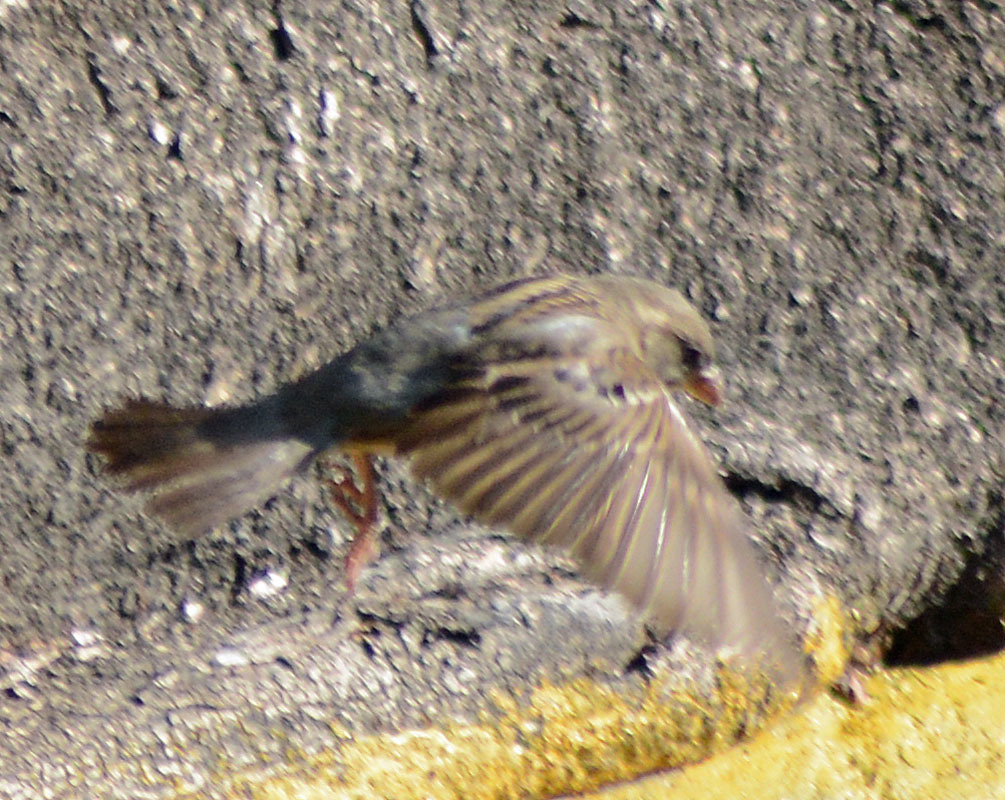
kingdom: Animalia
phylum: Chordata
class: Aves
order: Passeriformes
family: Passeridae
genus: Passer
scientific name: Passer domesticus
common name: House sparrow
